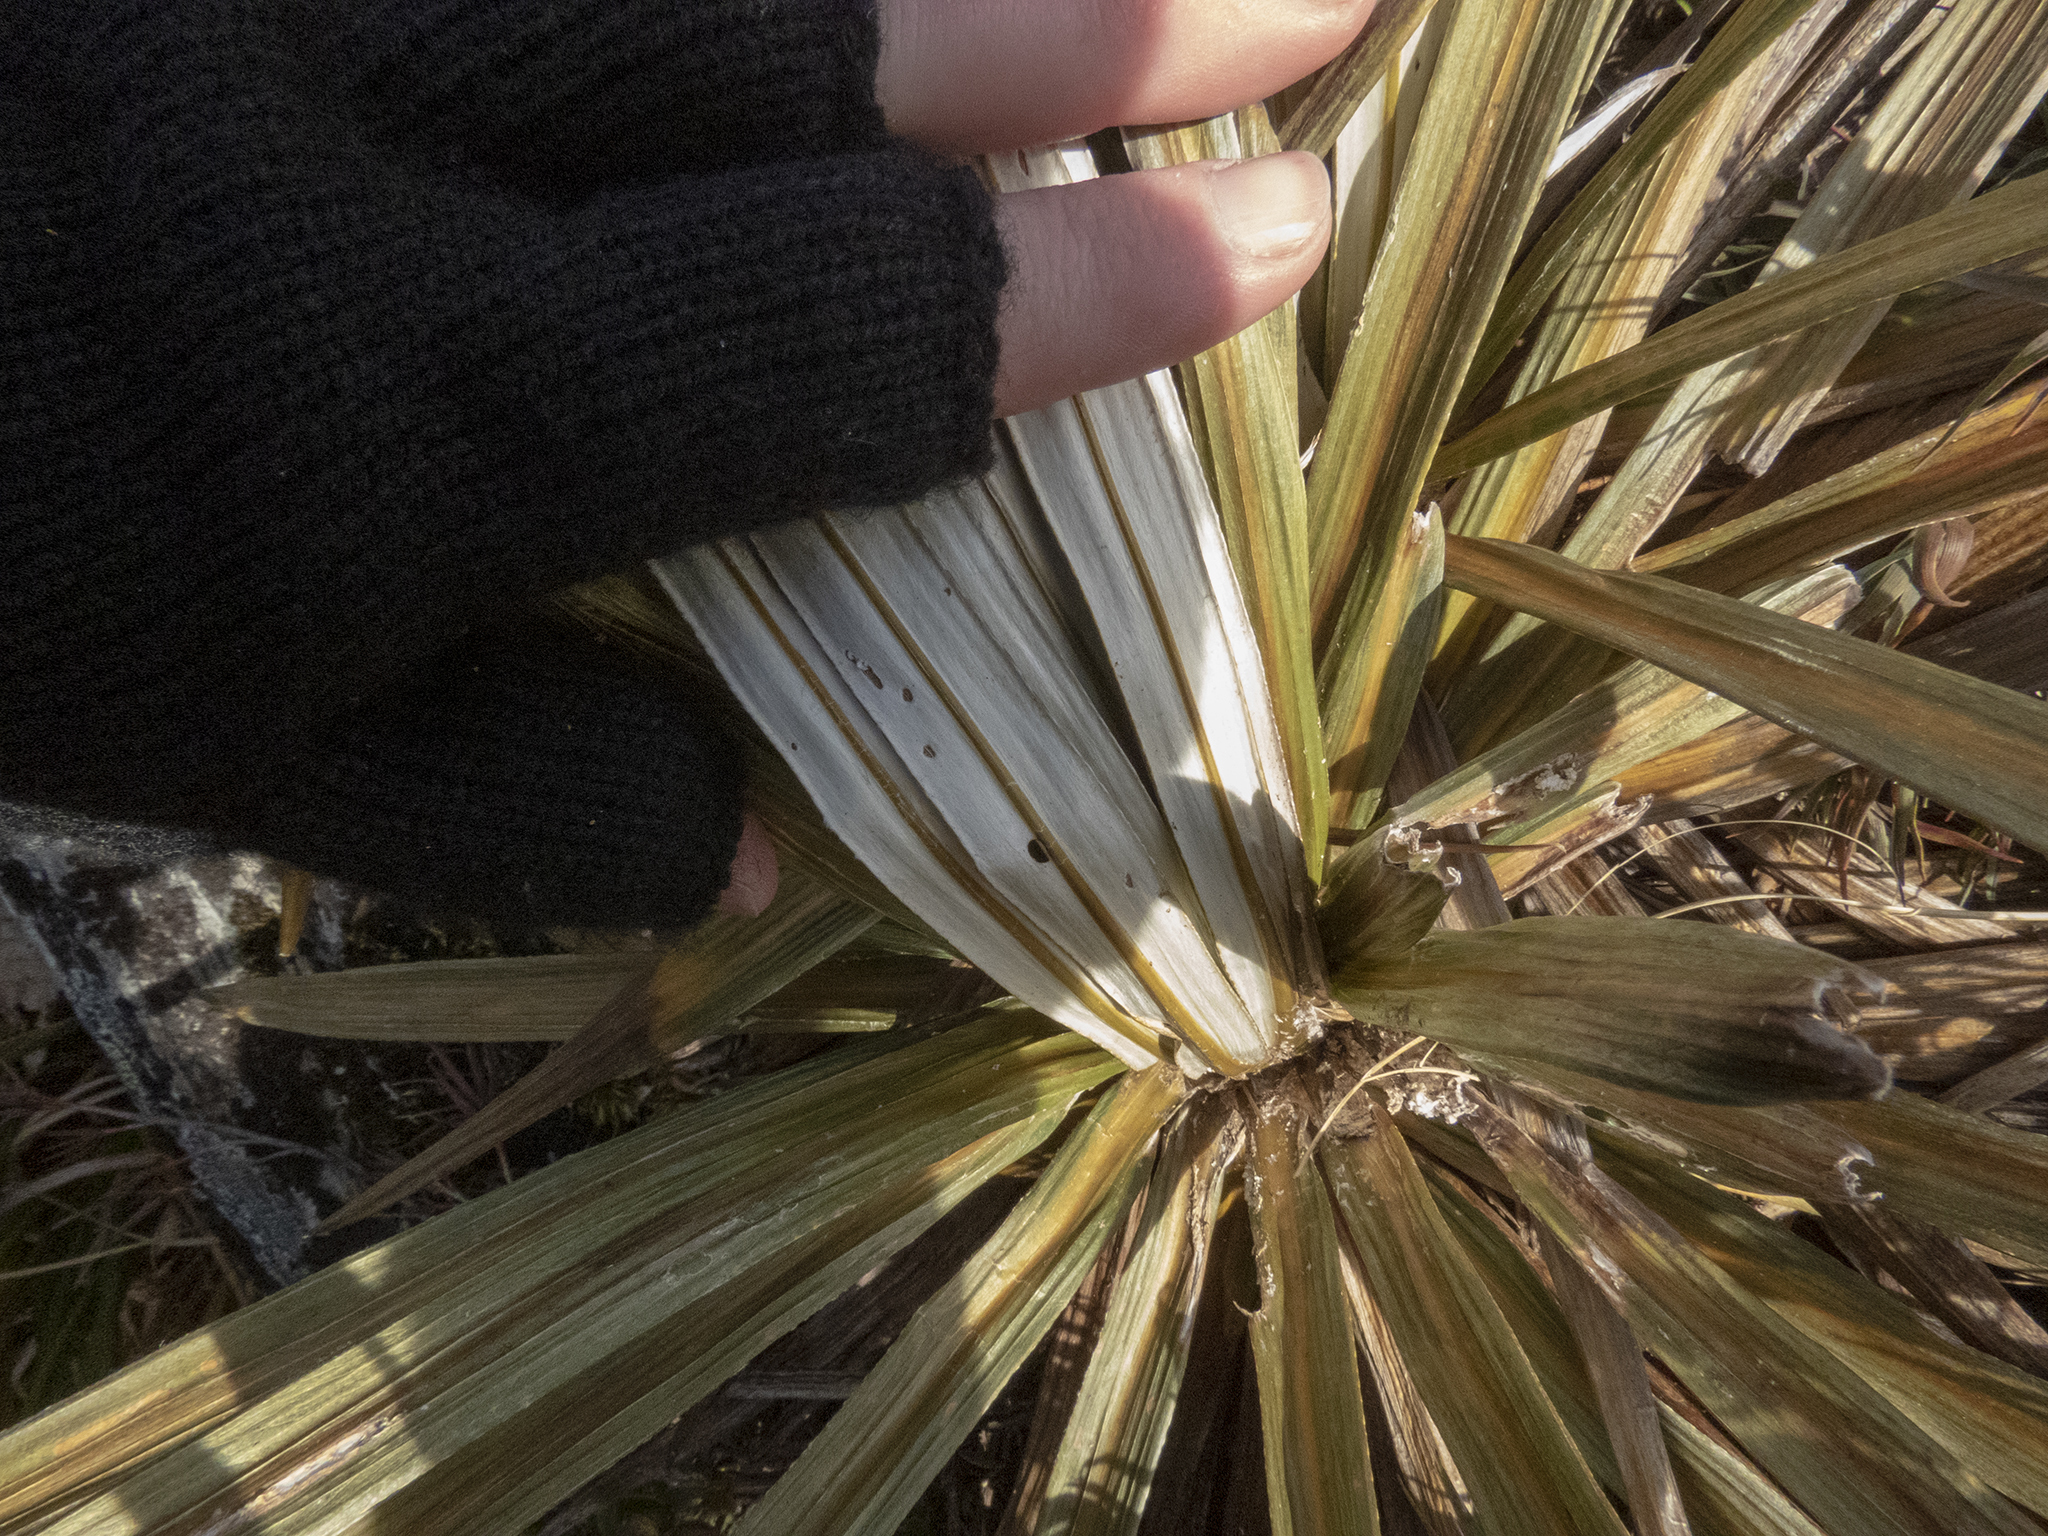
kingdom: Plantae
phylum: Tracheophyta
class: Magnoliopsida
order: Asterales
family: Asteraceae
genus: Celmisia
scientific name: Celmisia armstrongii
